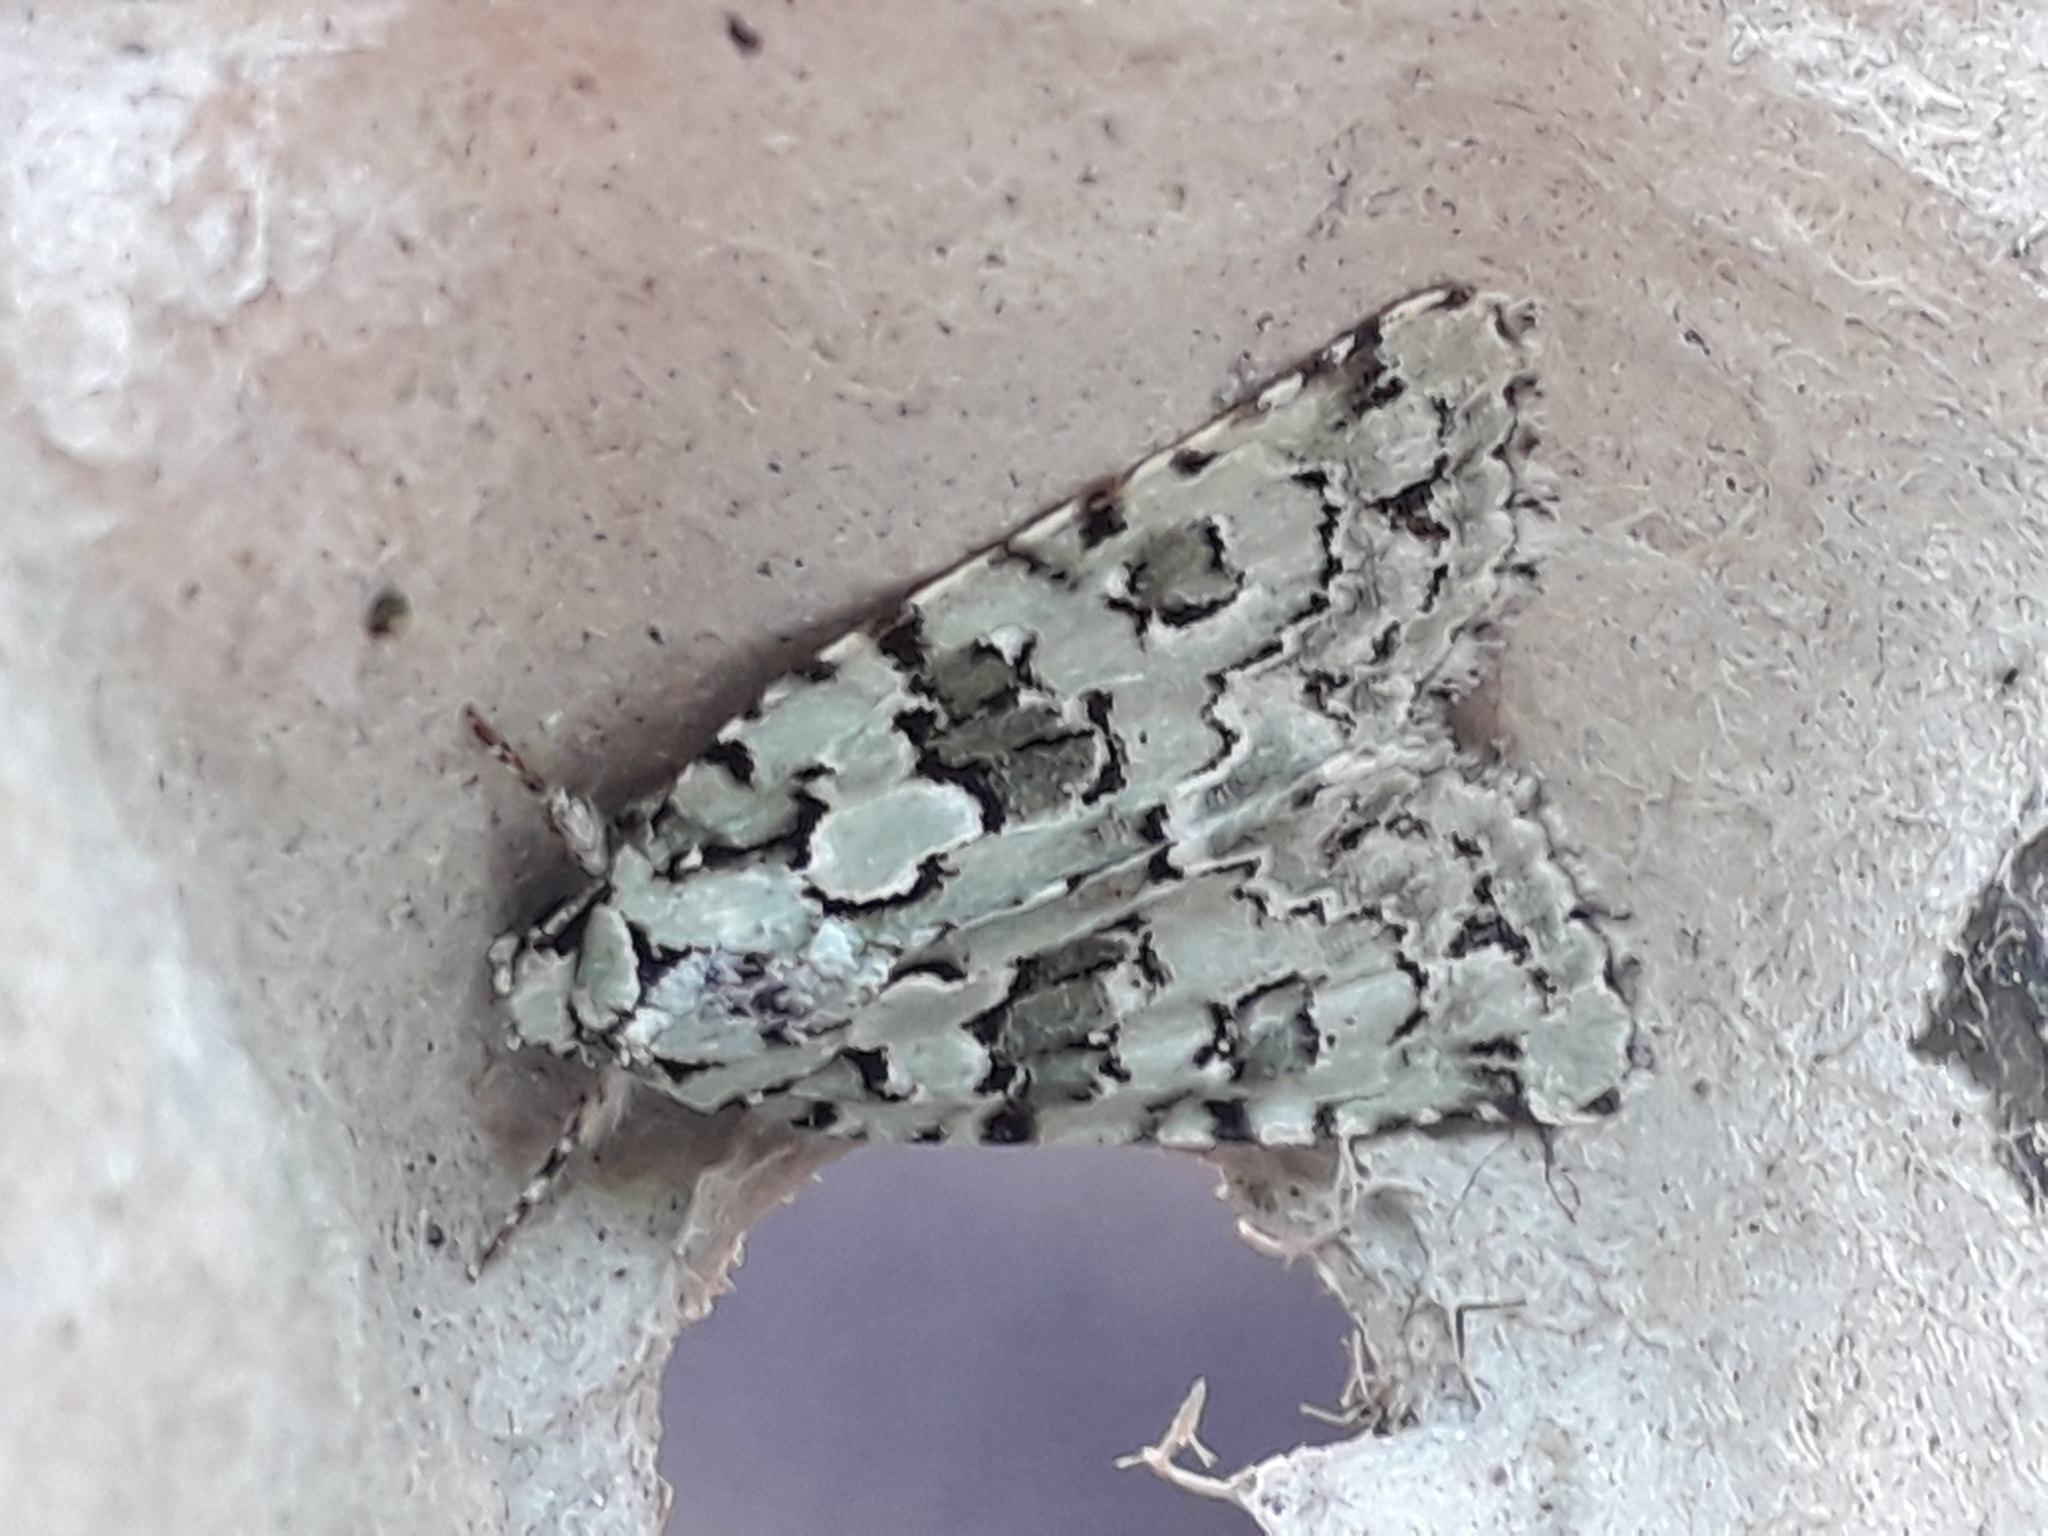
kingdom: Animalia
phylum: Arthropoda
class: Insecta
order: Lepidoptera
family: Noctuidae
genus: Nyctobrya
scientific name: Nyctobrya muralis
